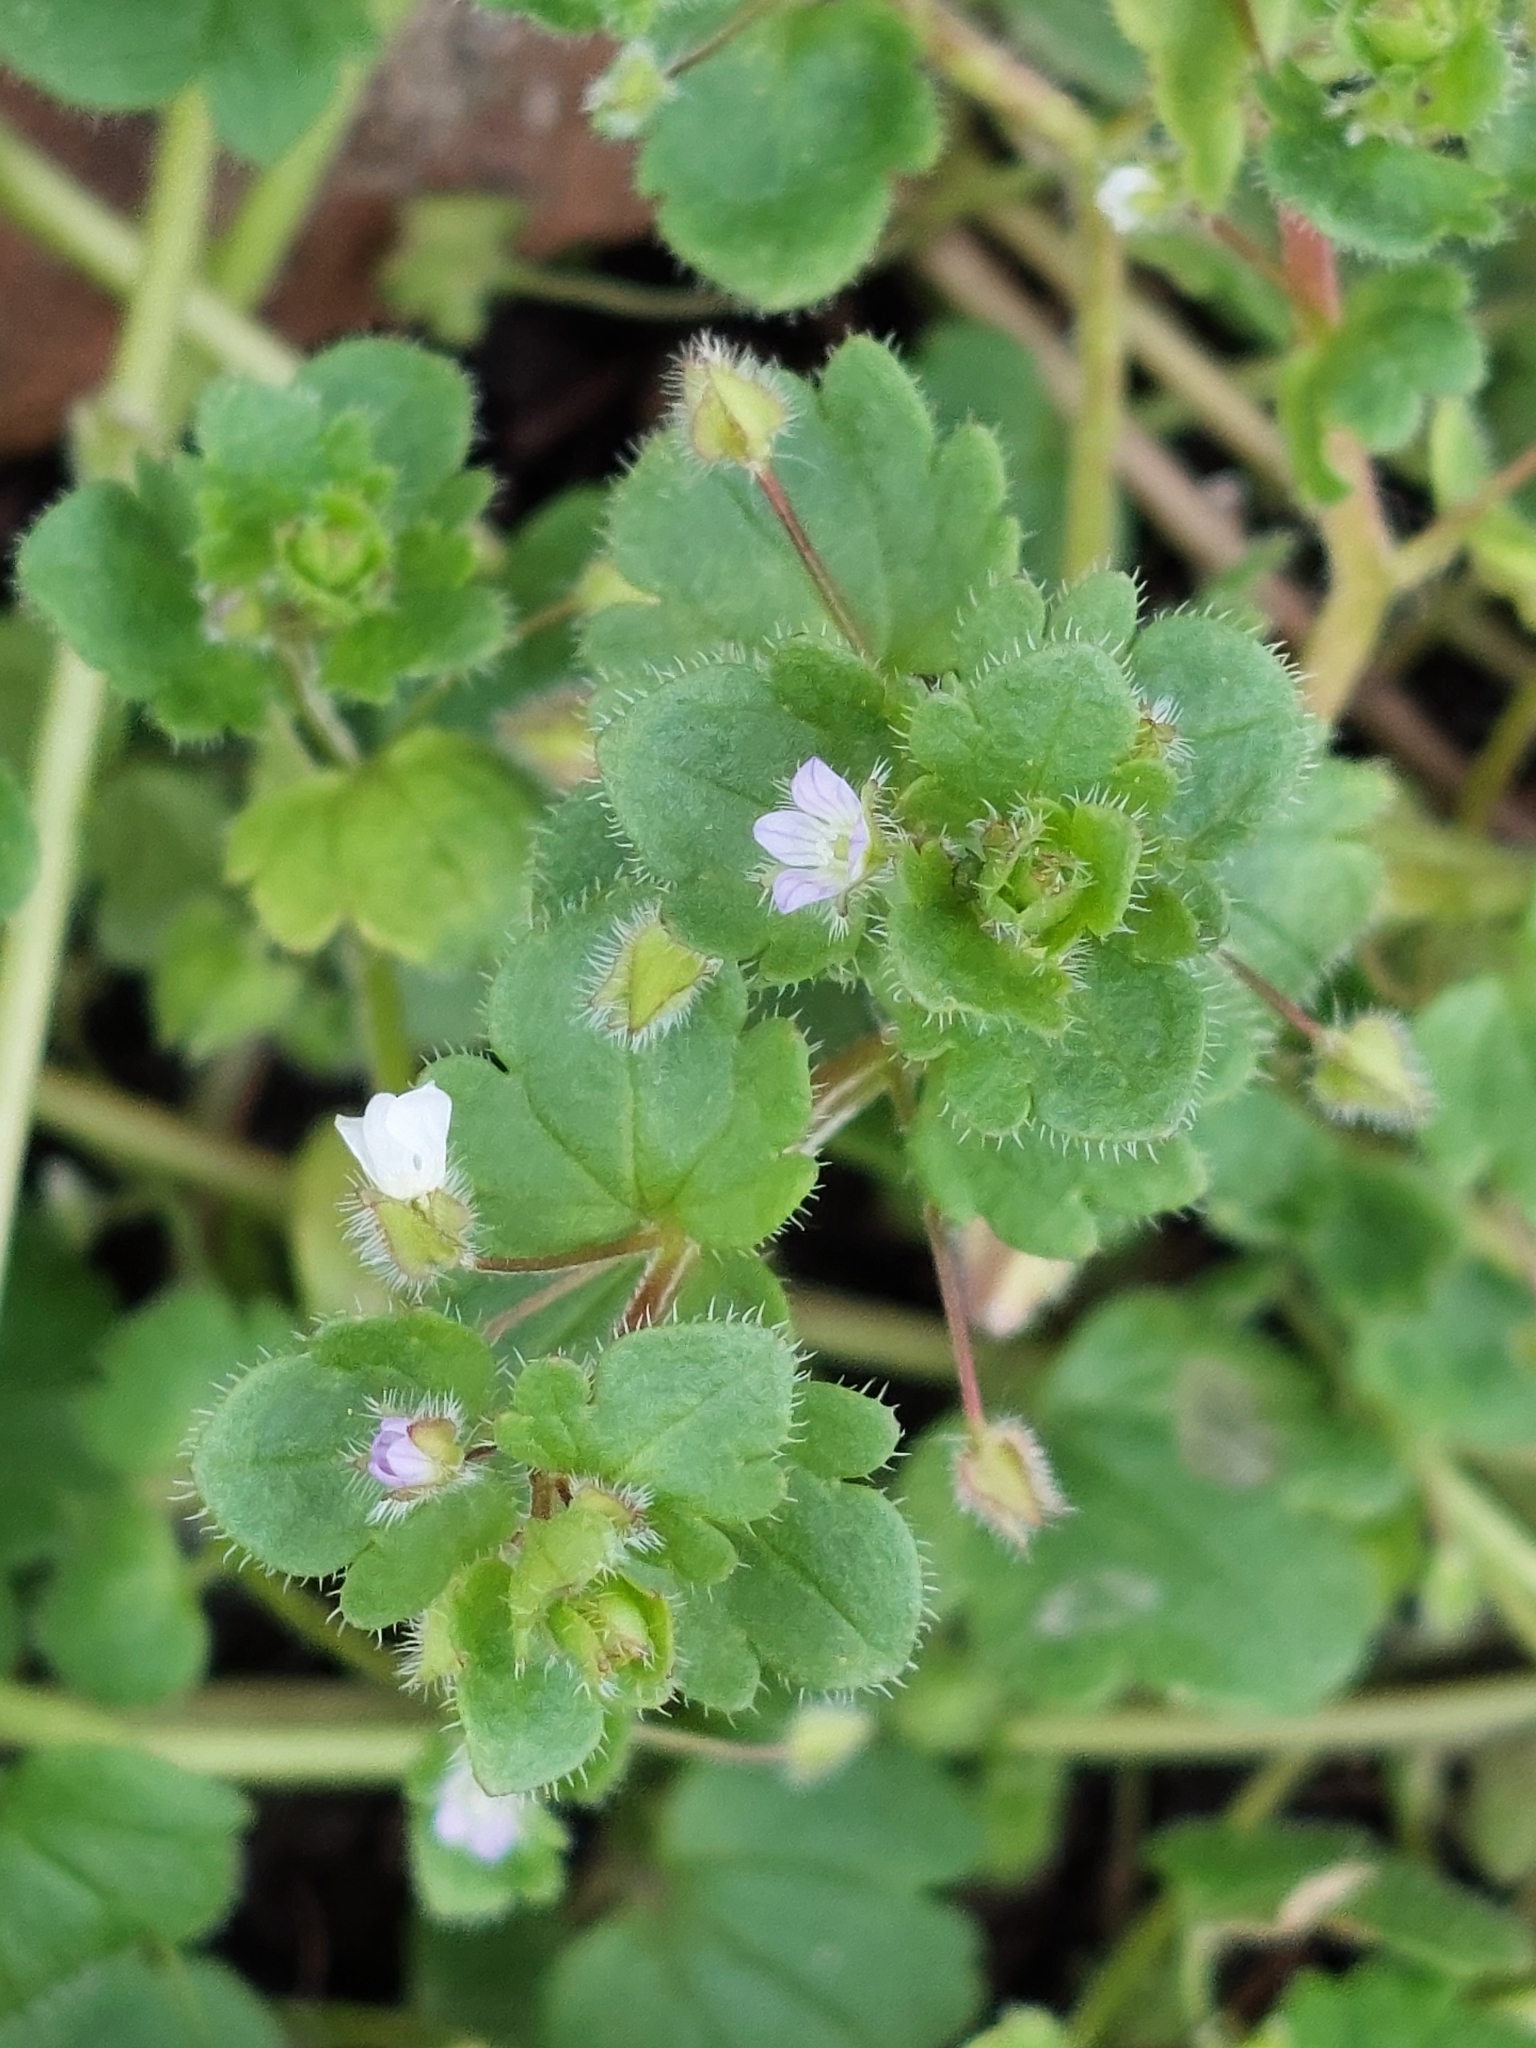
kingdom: Plantae
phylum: Tracheophyta
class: Magnoliopsida
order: Lamiales
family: Plantaginaceae
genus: Veronica
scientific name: Veronica sublobata
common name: False ivy-leaved speedwell
